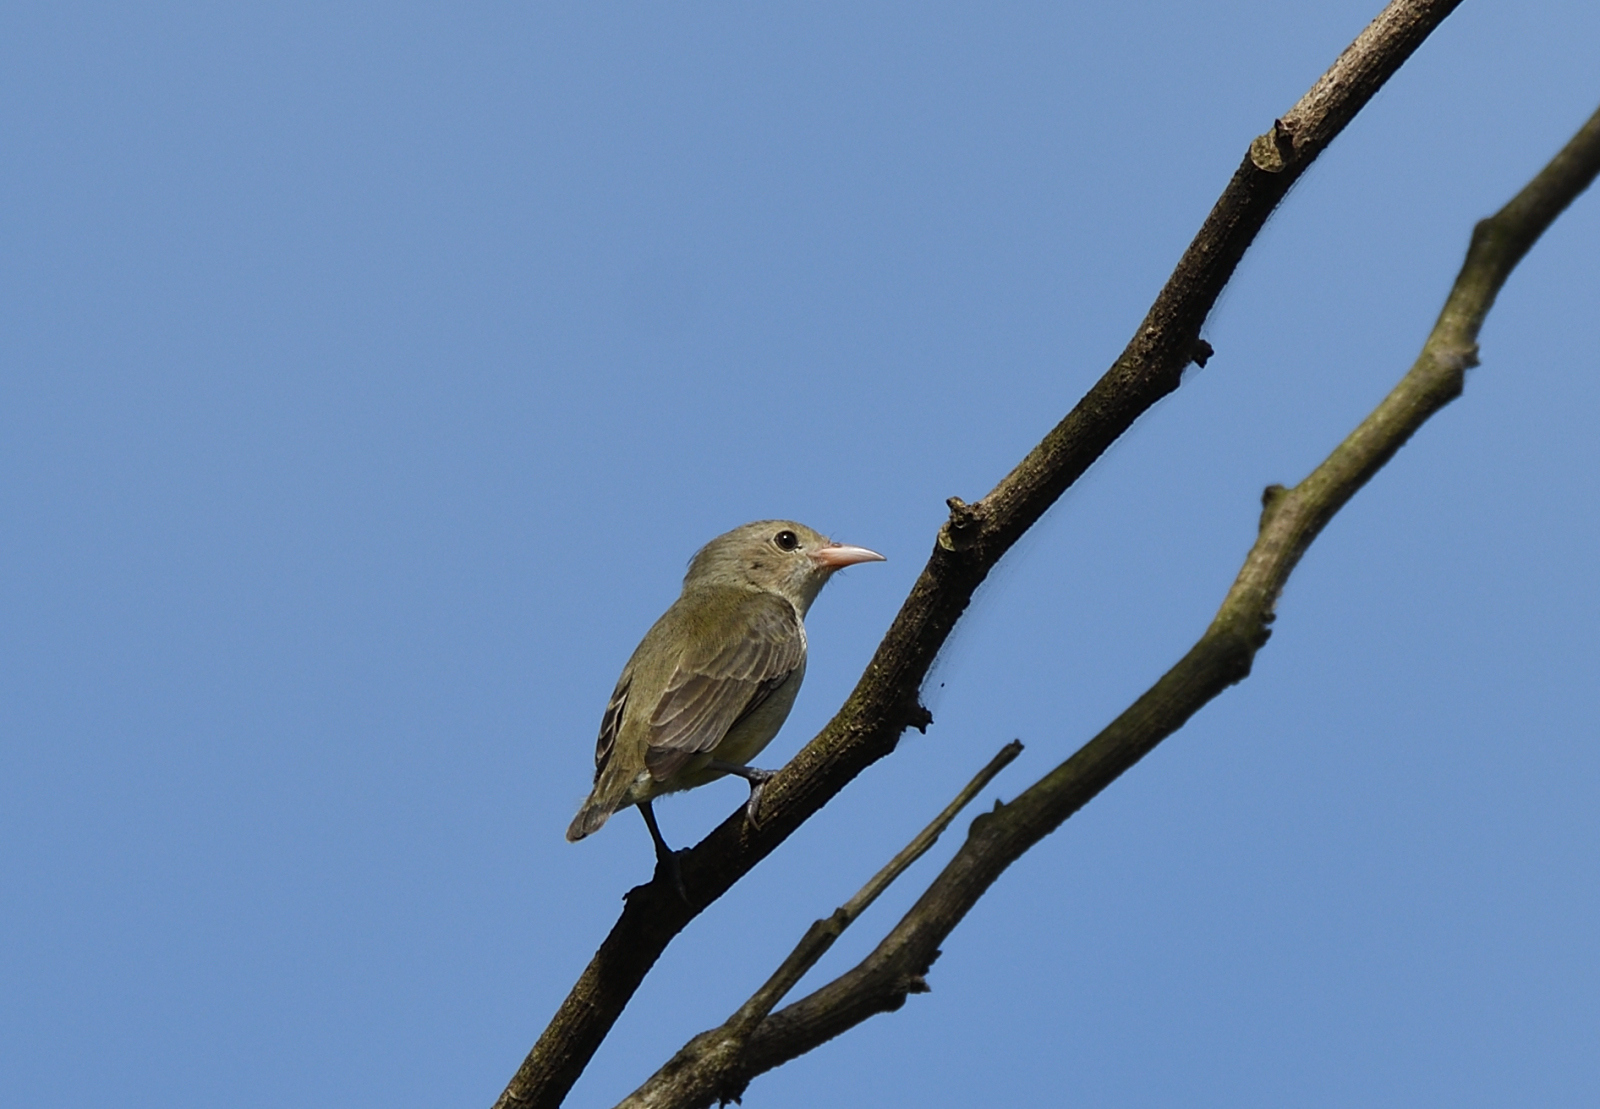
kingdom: Animalia
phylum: Chordata
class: Aves
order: Passeriformes
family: Dicaeidae
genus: Dicaeum
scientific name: Dicaeum erythrorhynchos
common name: Pale-billed flowerpecker
